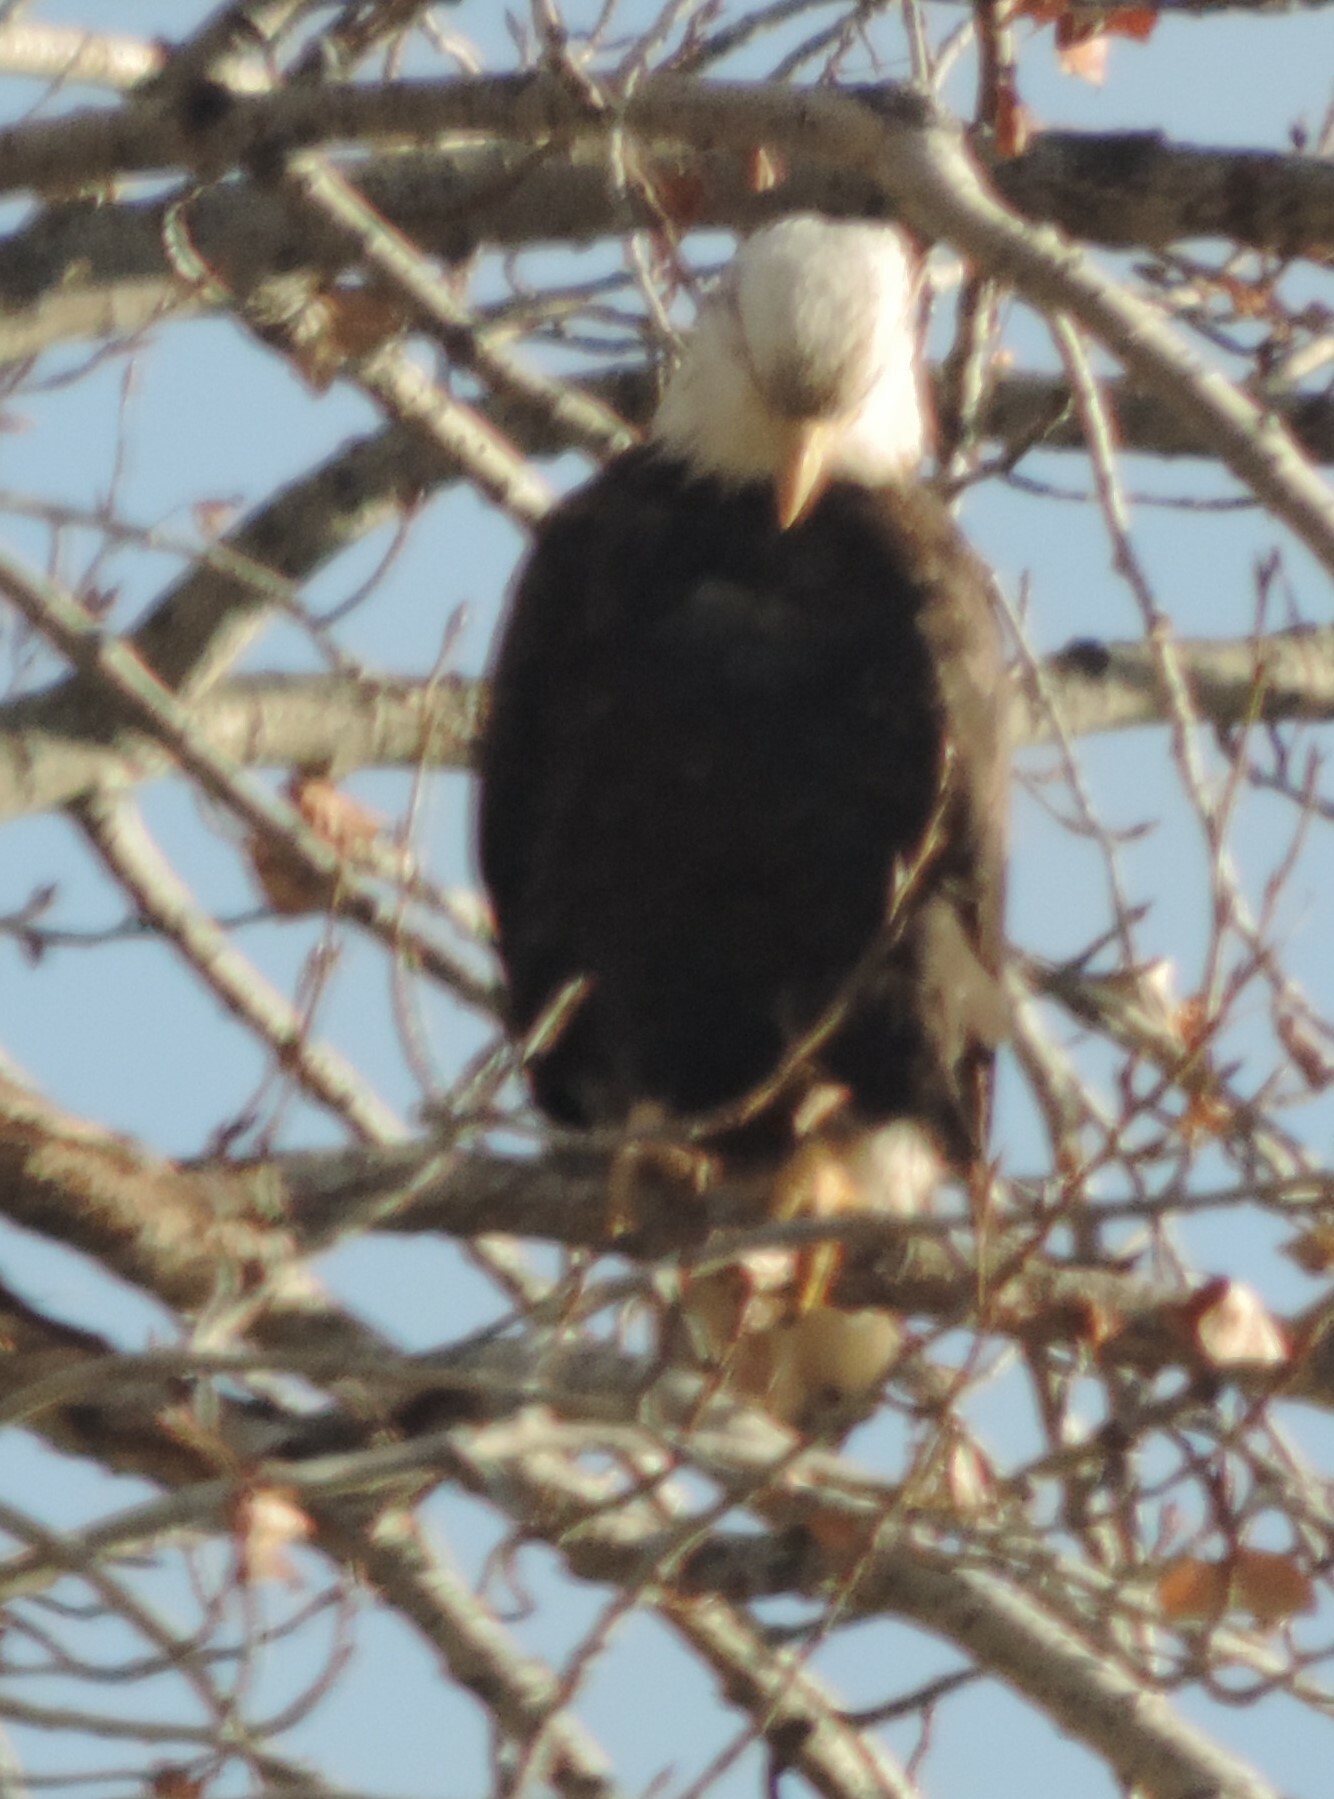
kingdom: Animalia
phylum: Chordata
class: Aves
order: Accipitriformes
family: Accipitridae
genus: Haliaeetus
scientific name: Haliaeetus leucocephalus
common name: Bald eagle
